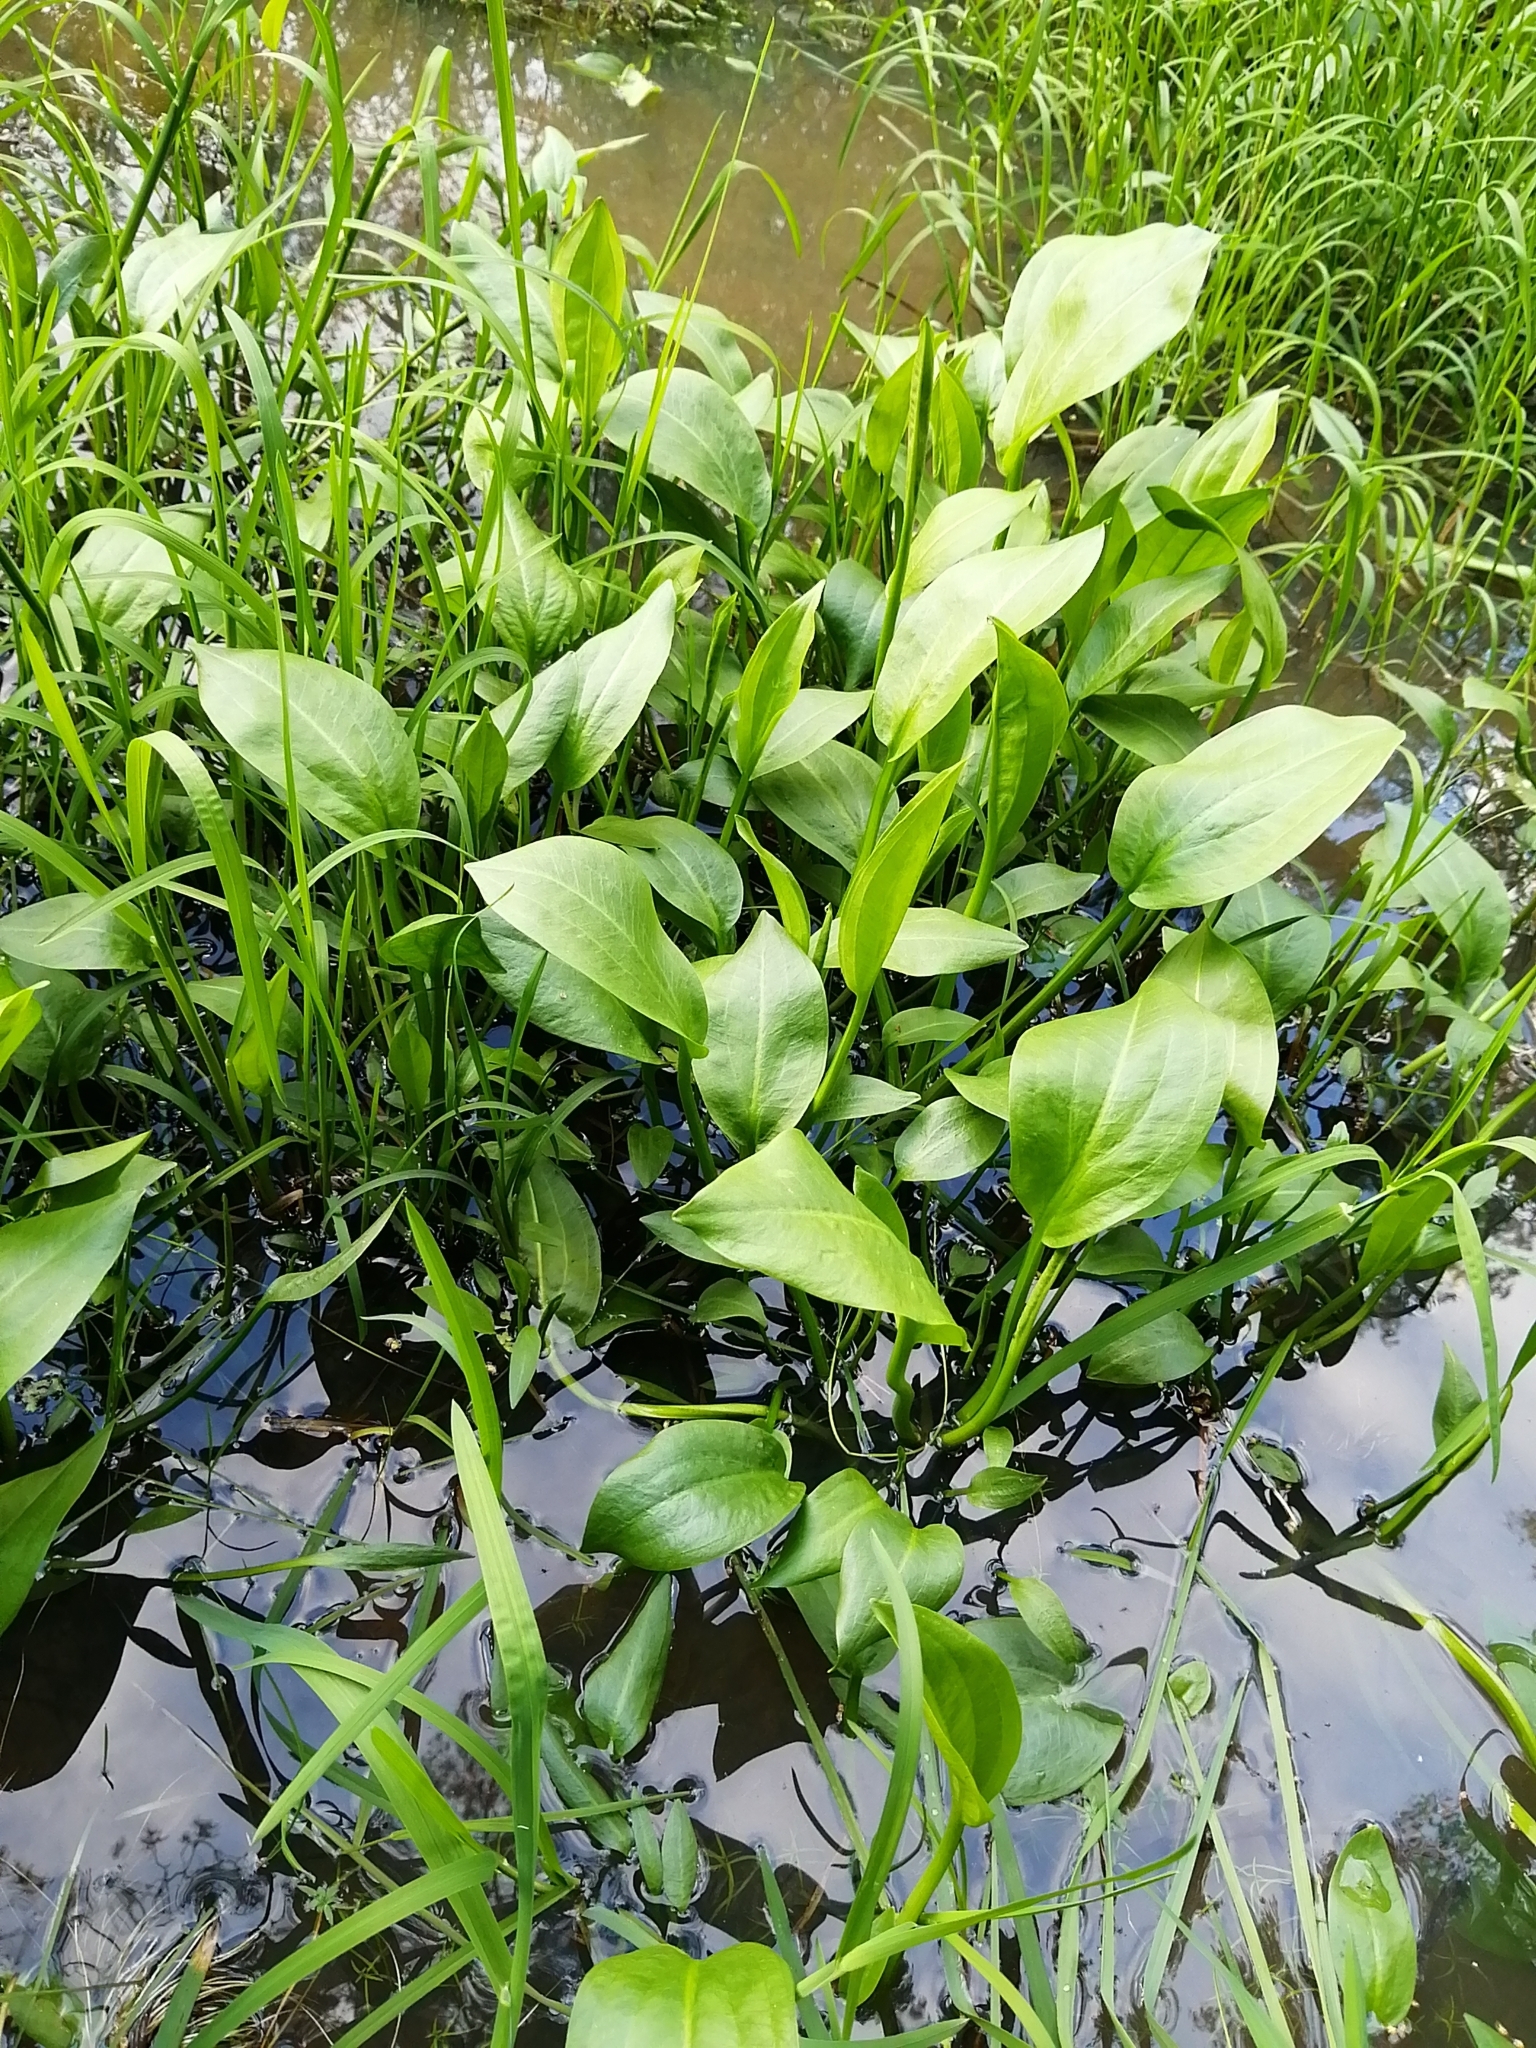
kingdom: Plantae
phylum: Tracheophyta
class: Liliopsida
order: Alismatales
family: Alismataceae
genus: Alisma
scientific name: Alisma plantago-aquatica
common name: Water-plantain
